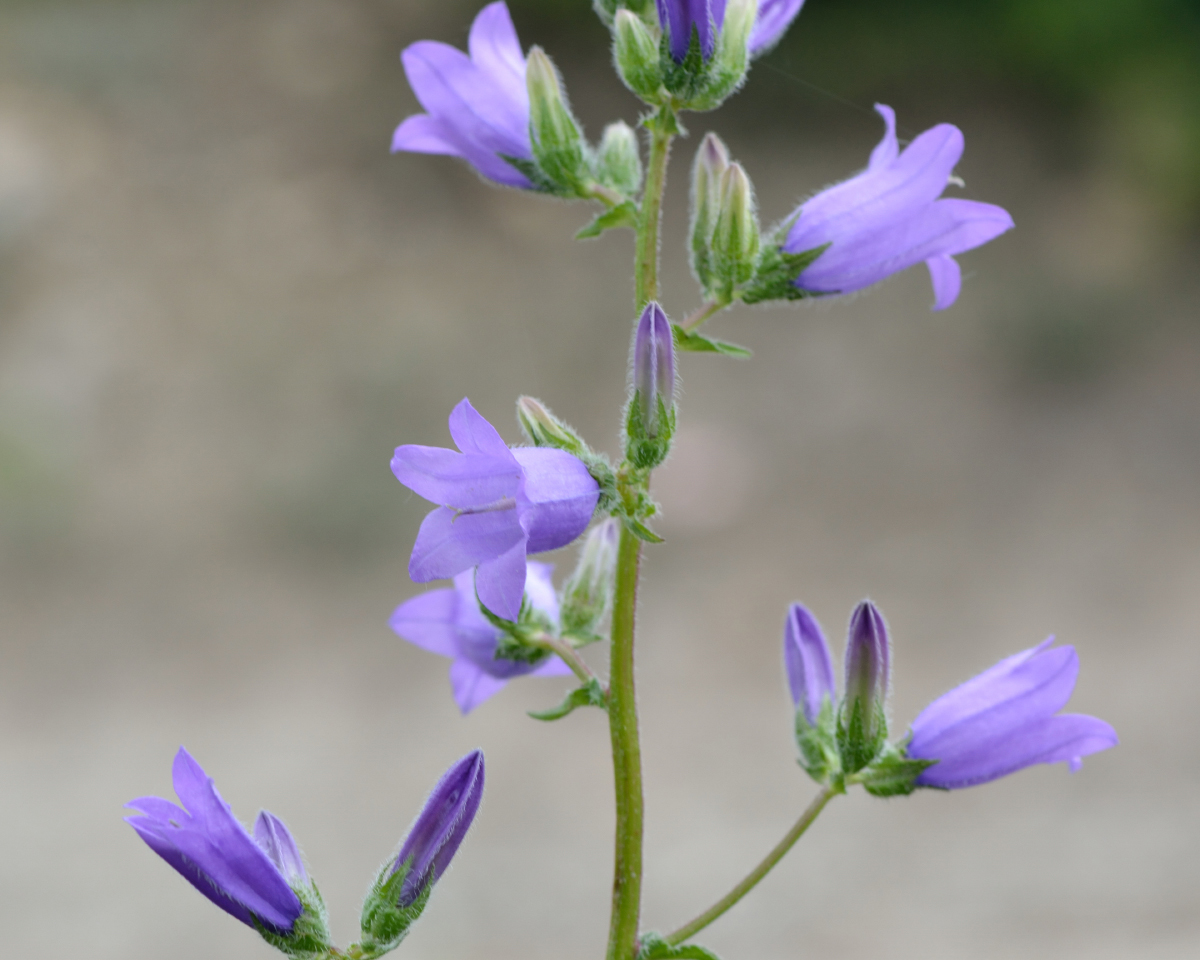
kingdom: Plantae
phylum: Tracheophyta
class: Magnoliopsida
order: Asterales
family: Campanulaceae
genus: Campanula
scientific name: Campanula komarovii
